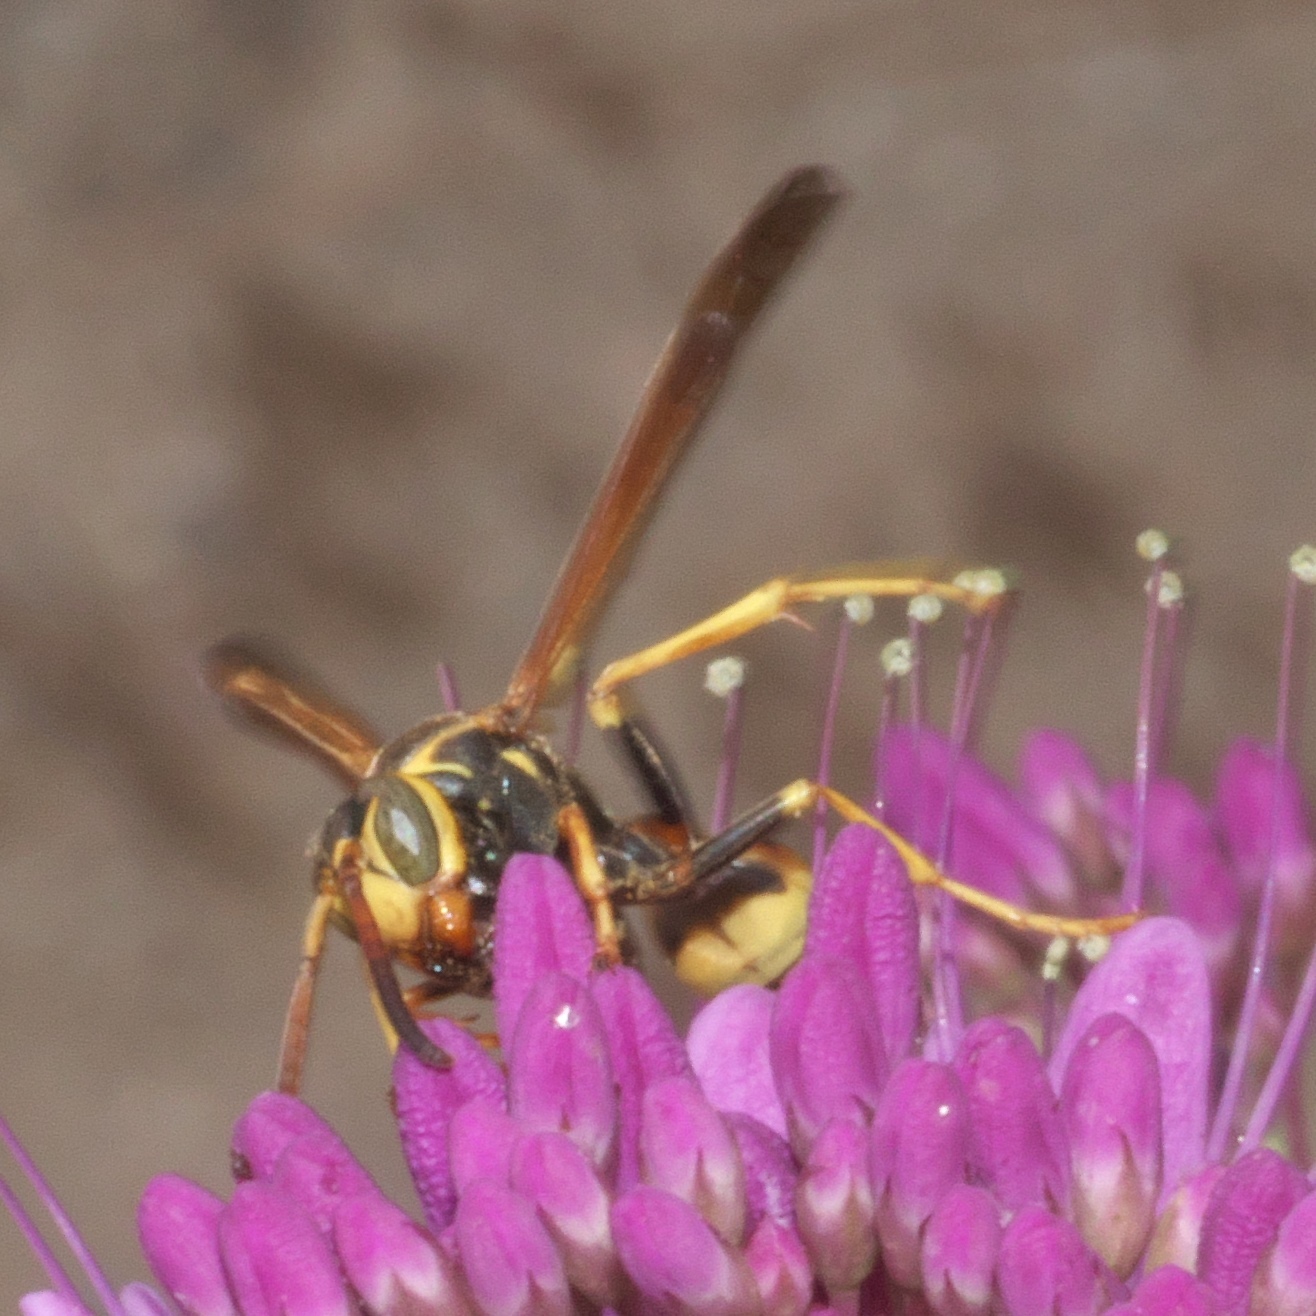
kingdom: Animalia
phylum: Arthropoda
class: Insecta
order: Hymenoptera
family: Vespidae
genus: Mischocyttarus
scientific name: Mischocyttarus flavitarsis
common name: Wasp
